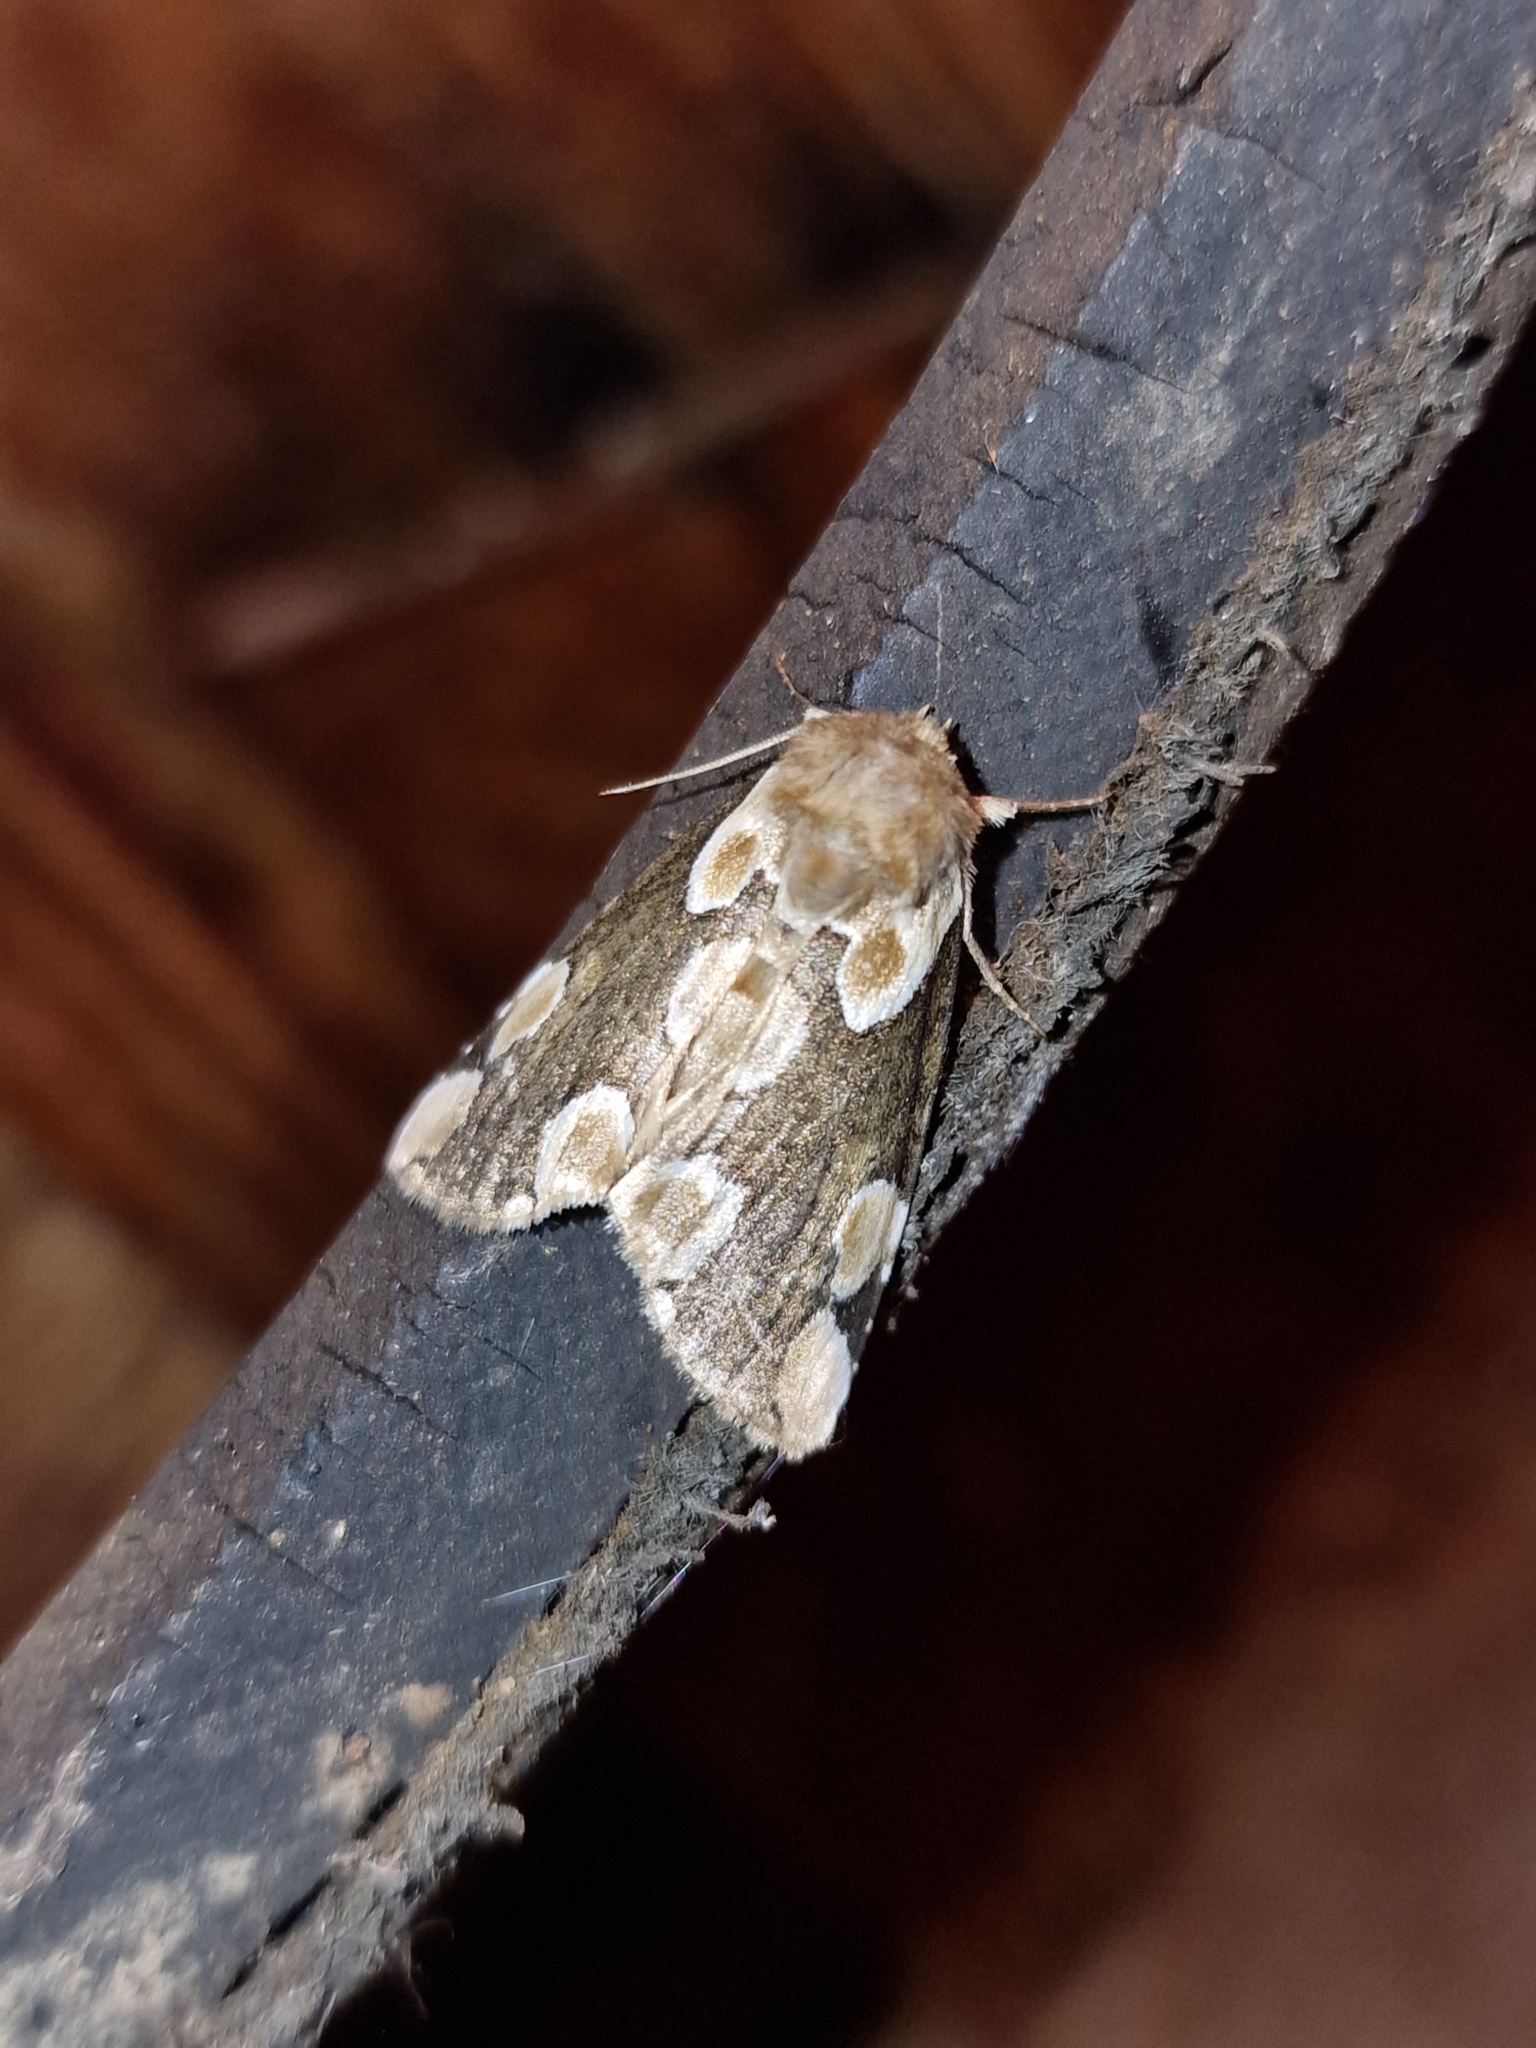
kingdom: Animalia
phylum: Arthropoda
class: Insecta
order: Lepidoptera
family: Drepanidae
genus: Thyatira
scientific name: Thyatira batis
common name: Peach blossom
